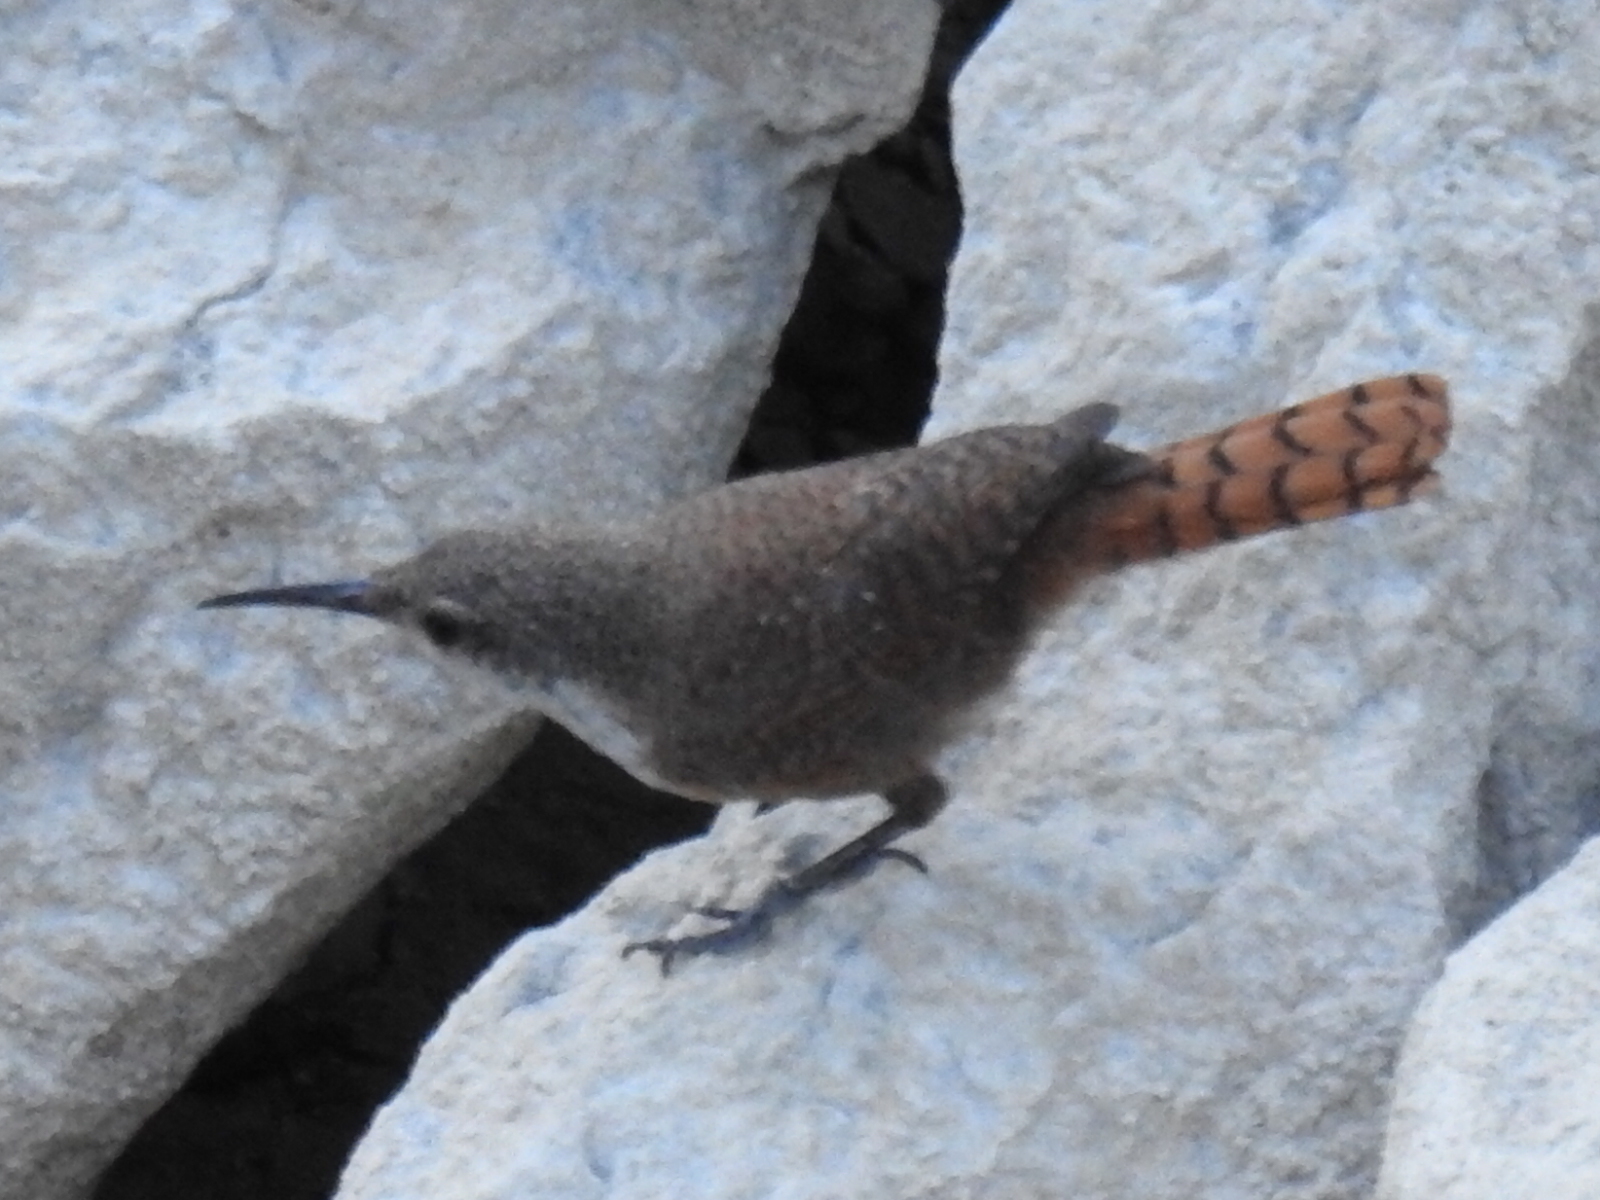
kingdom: Animalia
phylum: Chordata
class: Aves
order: Passeriformes
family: Troglodytidae
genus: Catherpes
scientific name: Catherpes mexicanus
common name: Canyon wren
